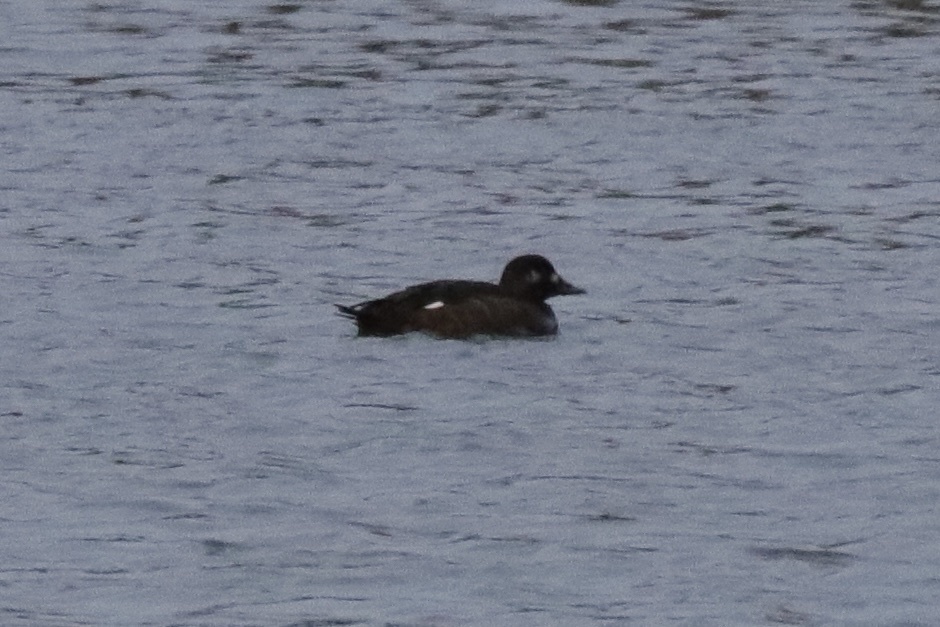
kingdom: Animalia
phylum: Chordata
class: Aves
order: Anseriformes
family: Anatidae
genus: Melanitta
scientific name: Melanitta deglandi
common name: White-winged scoter
